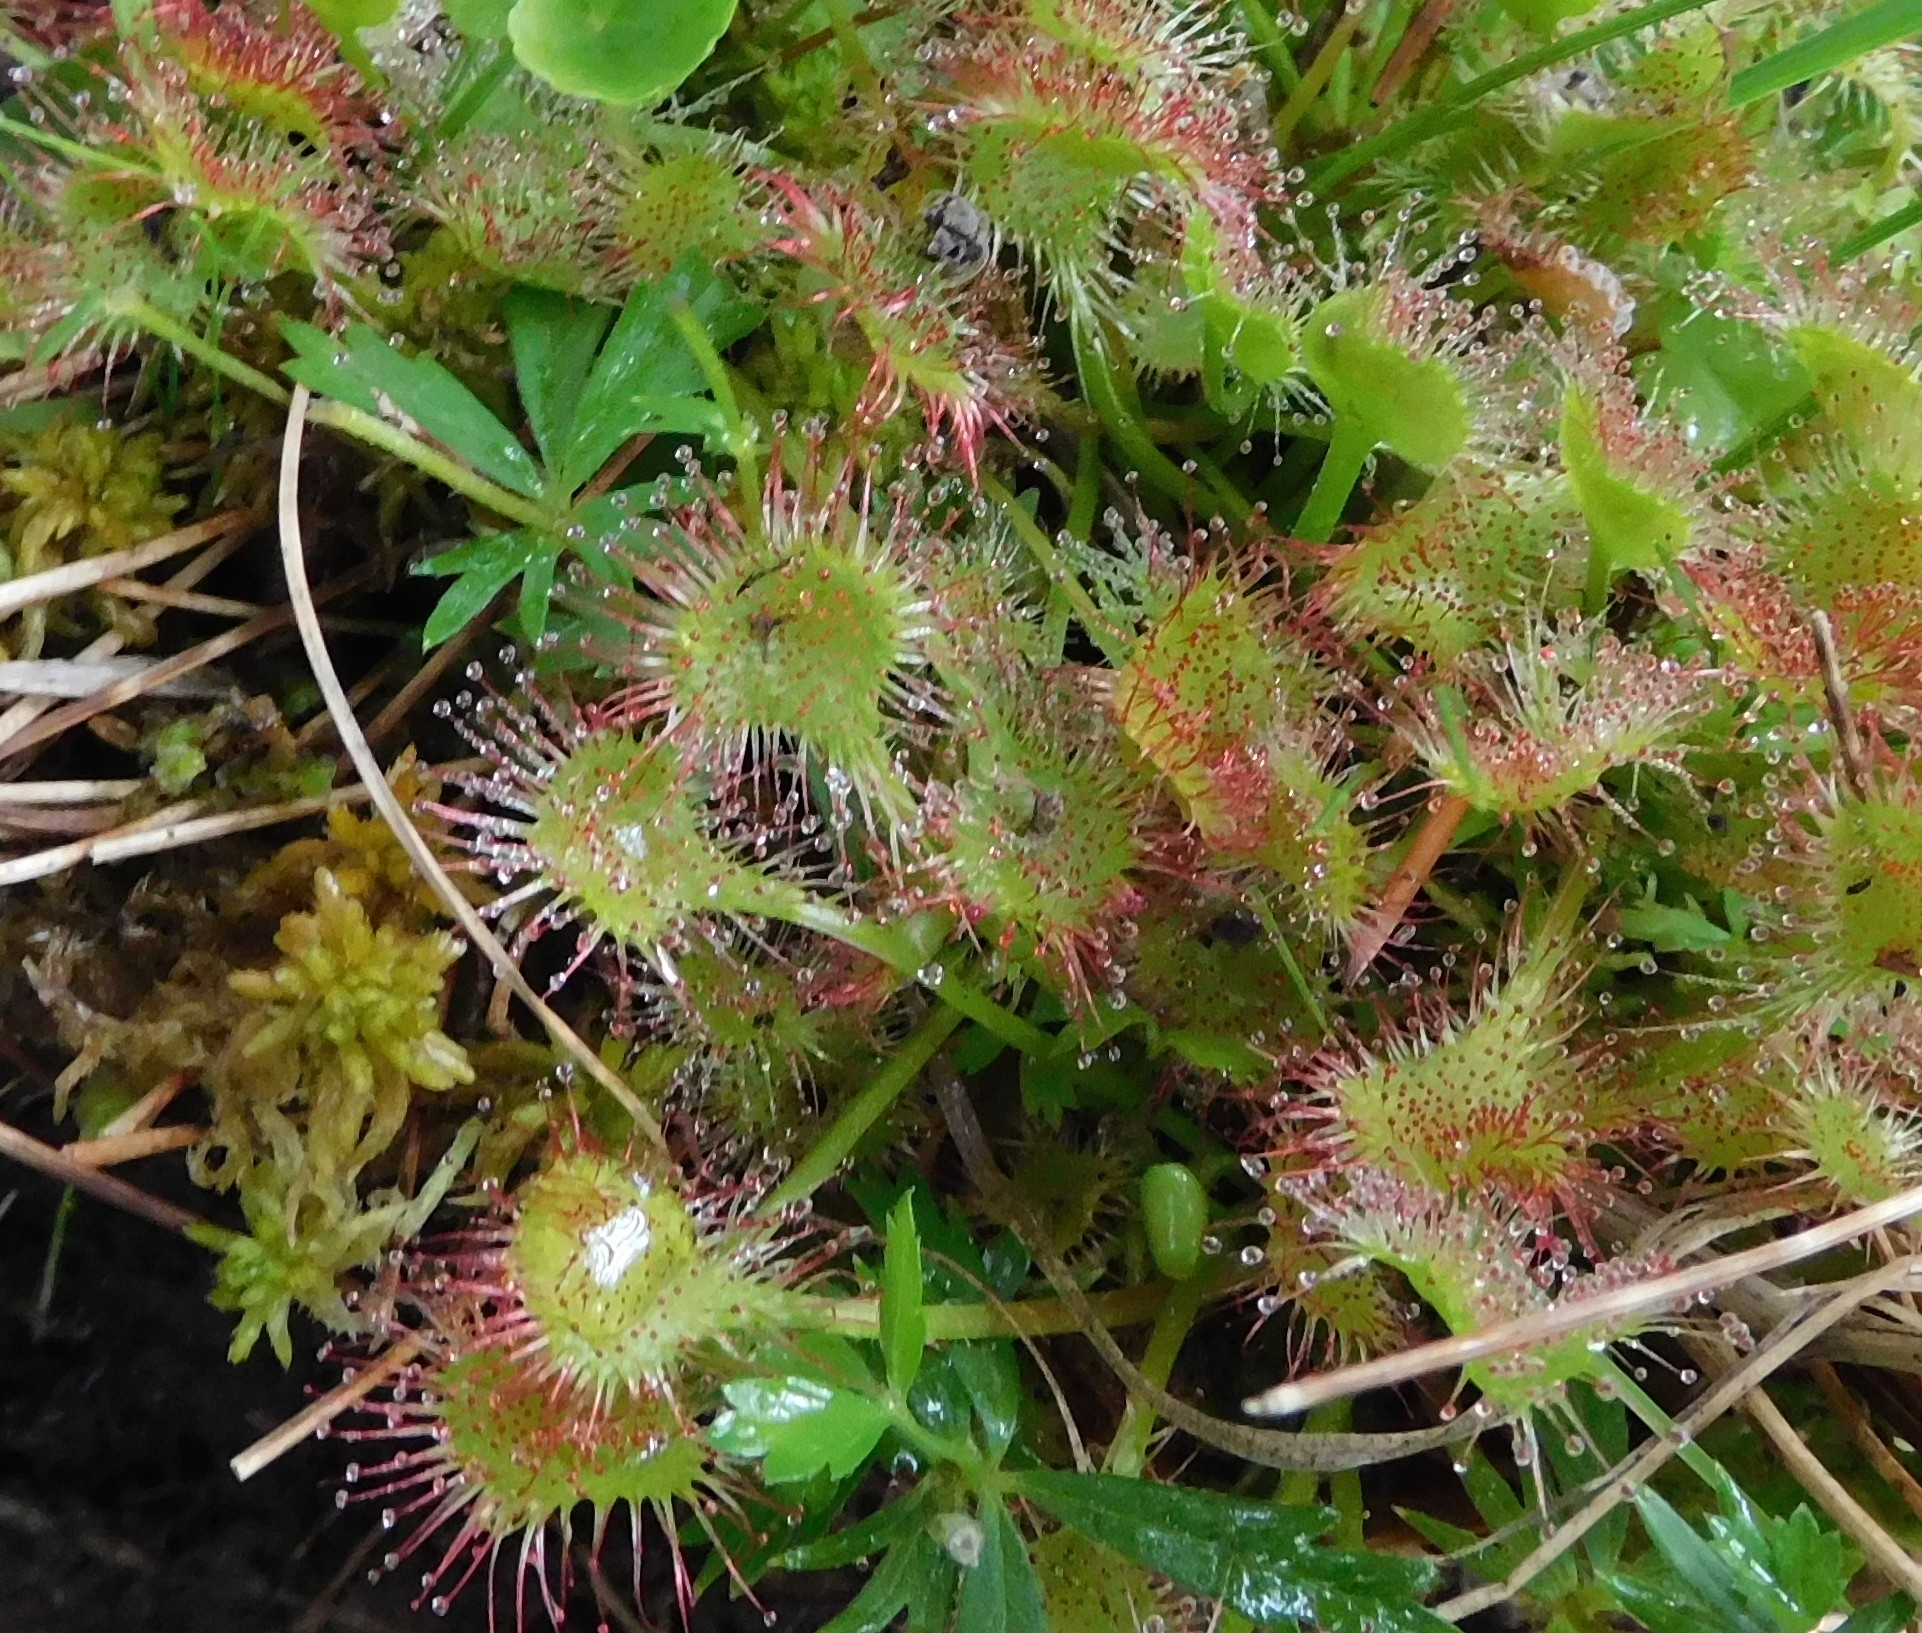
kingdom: Plantae
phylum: Tracheophyta
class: Magnoliopsida
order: Caryophyllales
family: Droseraceae
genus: Drosera
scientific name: Drosera rotundifolia
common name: Round-leaved sundew
